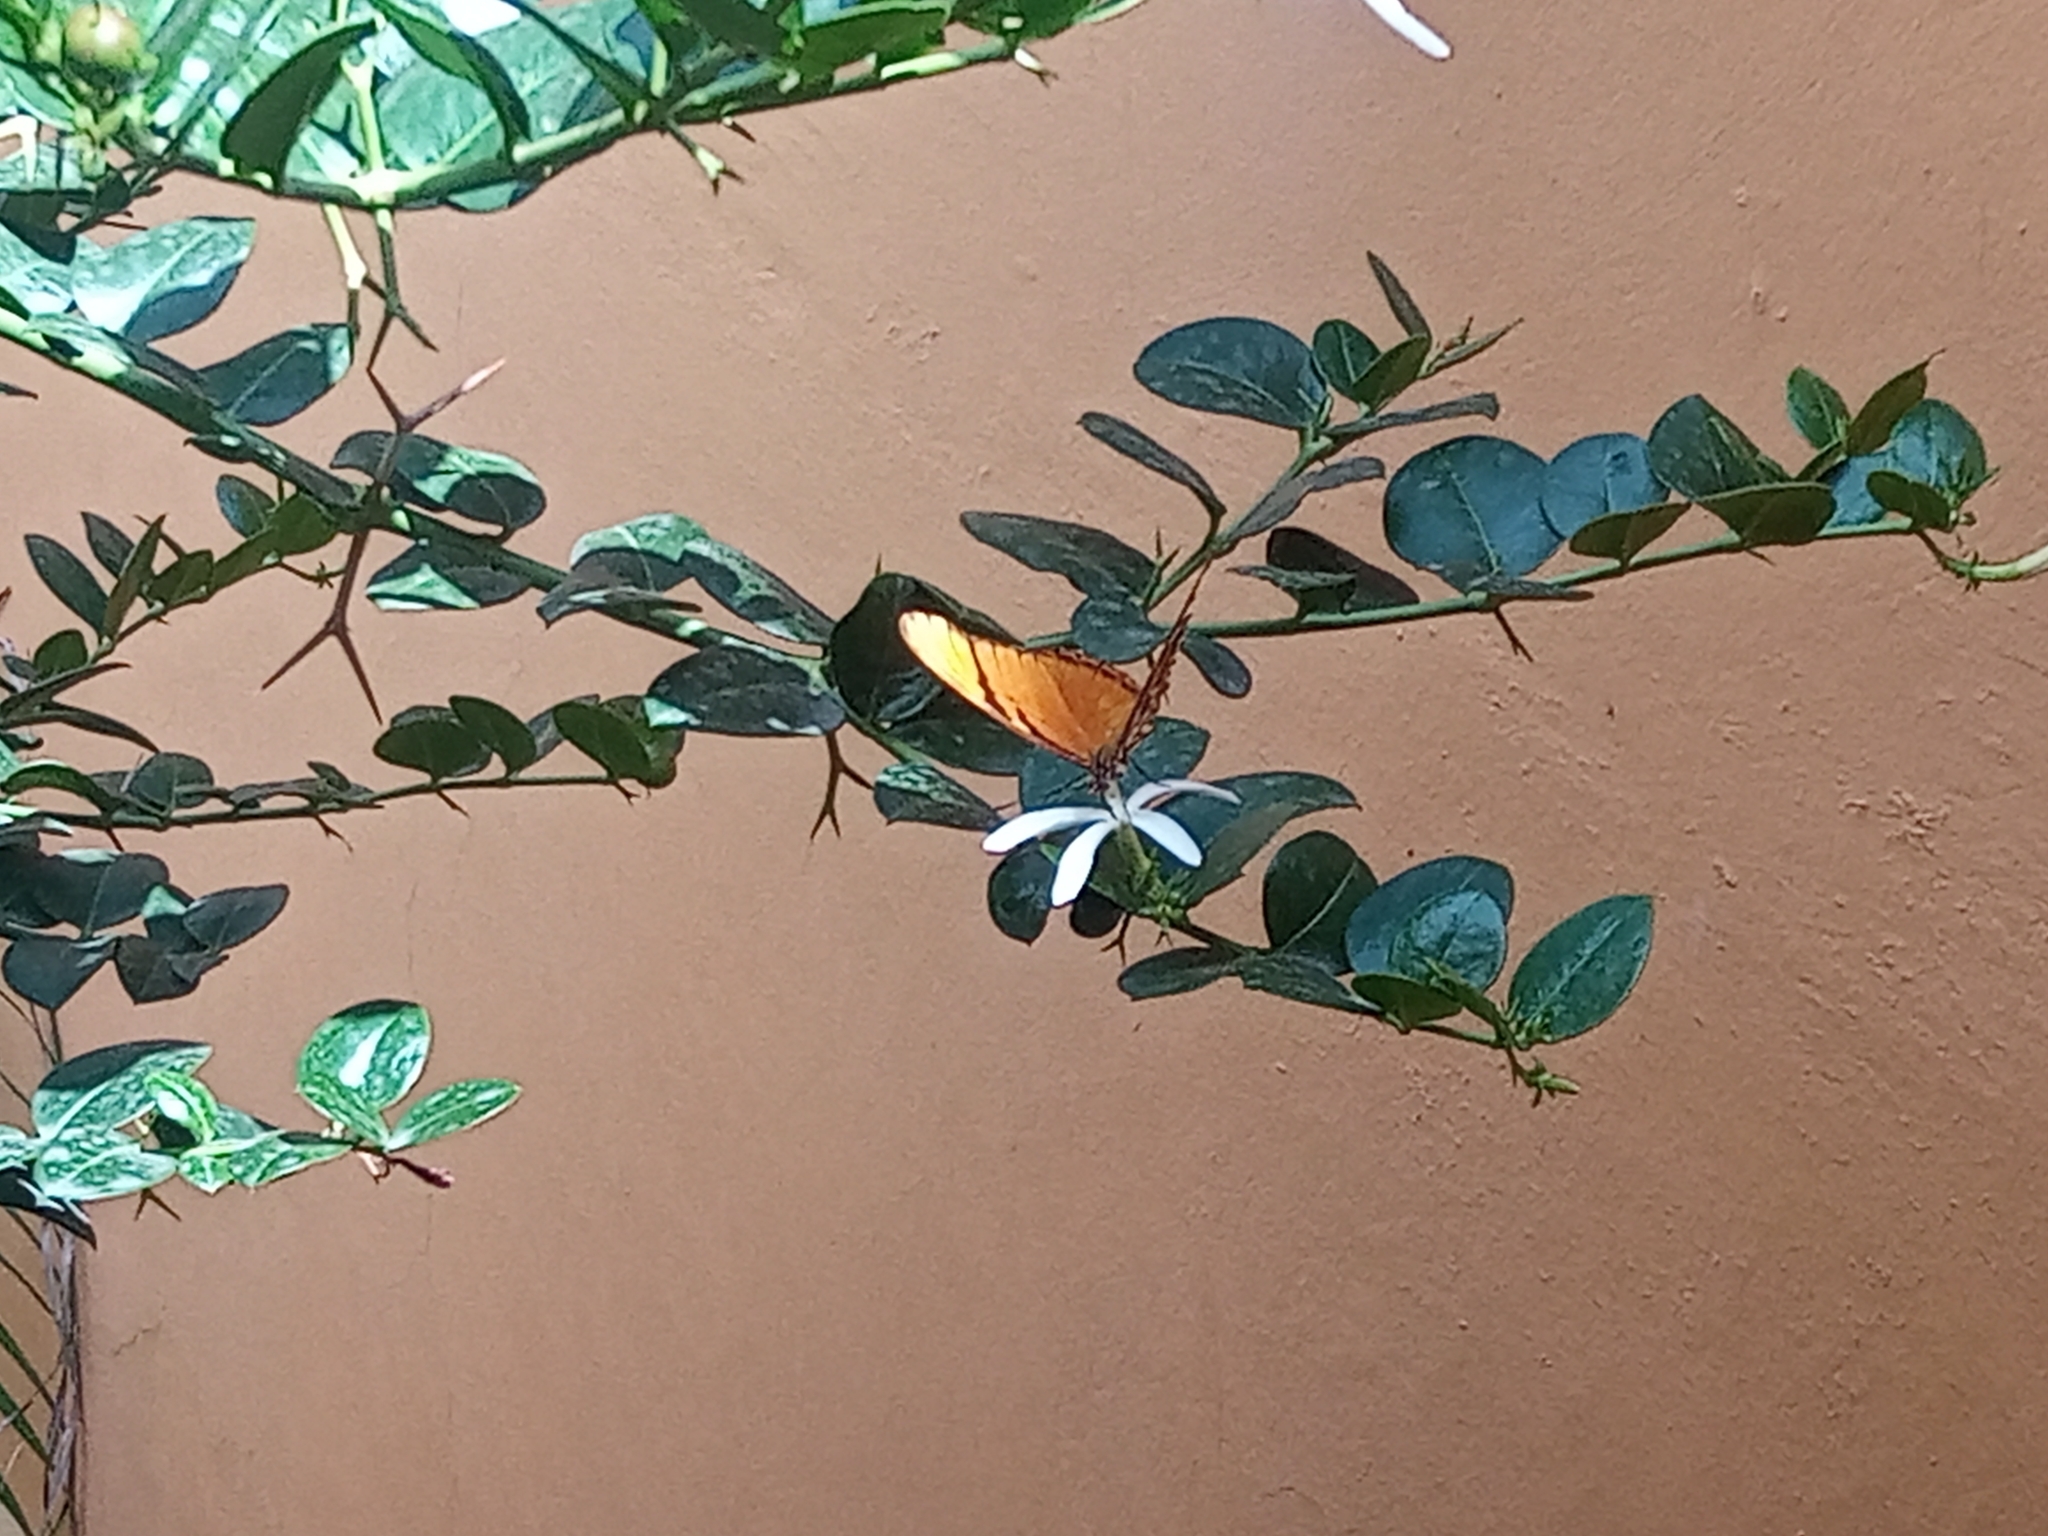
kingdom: Animalia
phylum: Arthropoda
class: Insecta
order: Lepidoptera
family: Nymphalidae
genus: Dione
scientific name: Dione juno
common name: Juno silverspot
